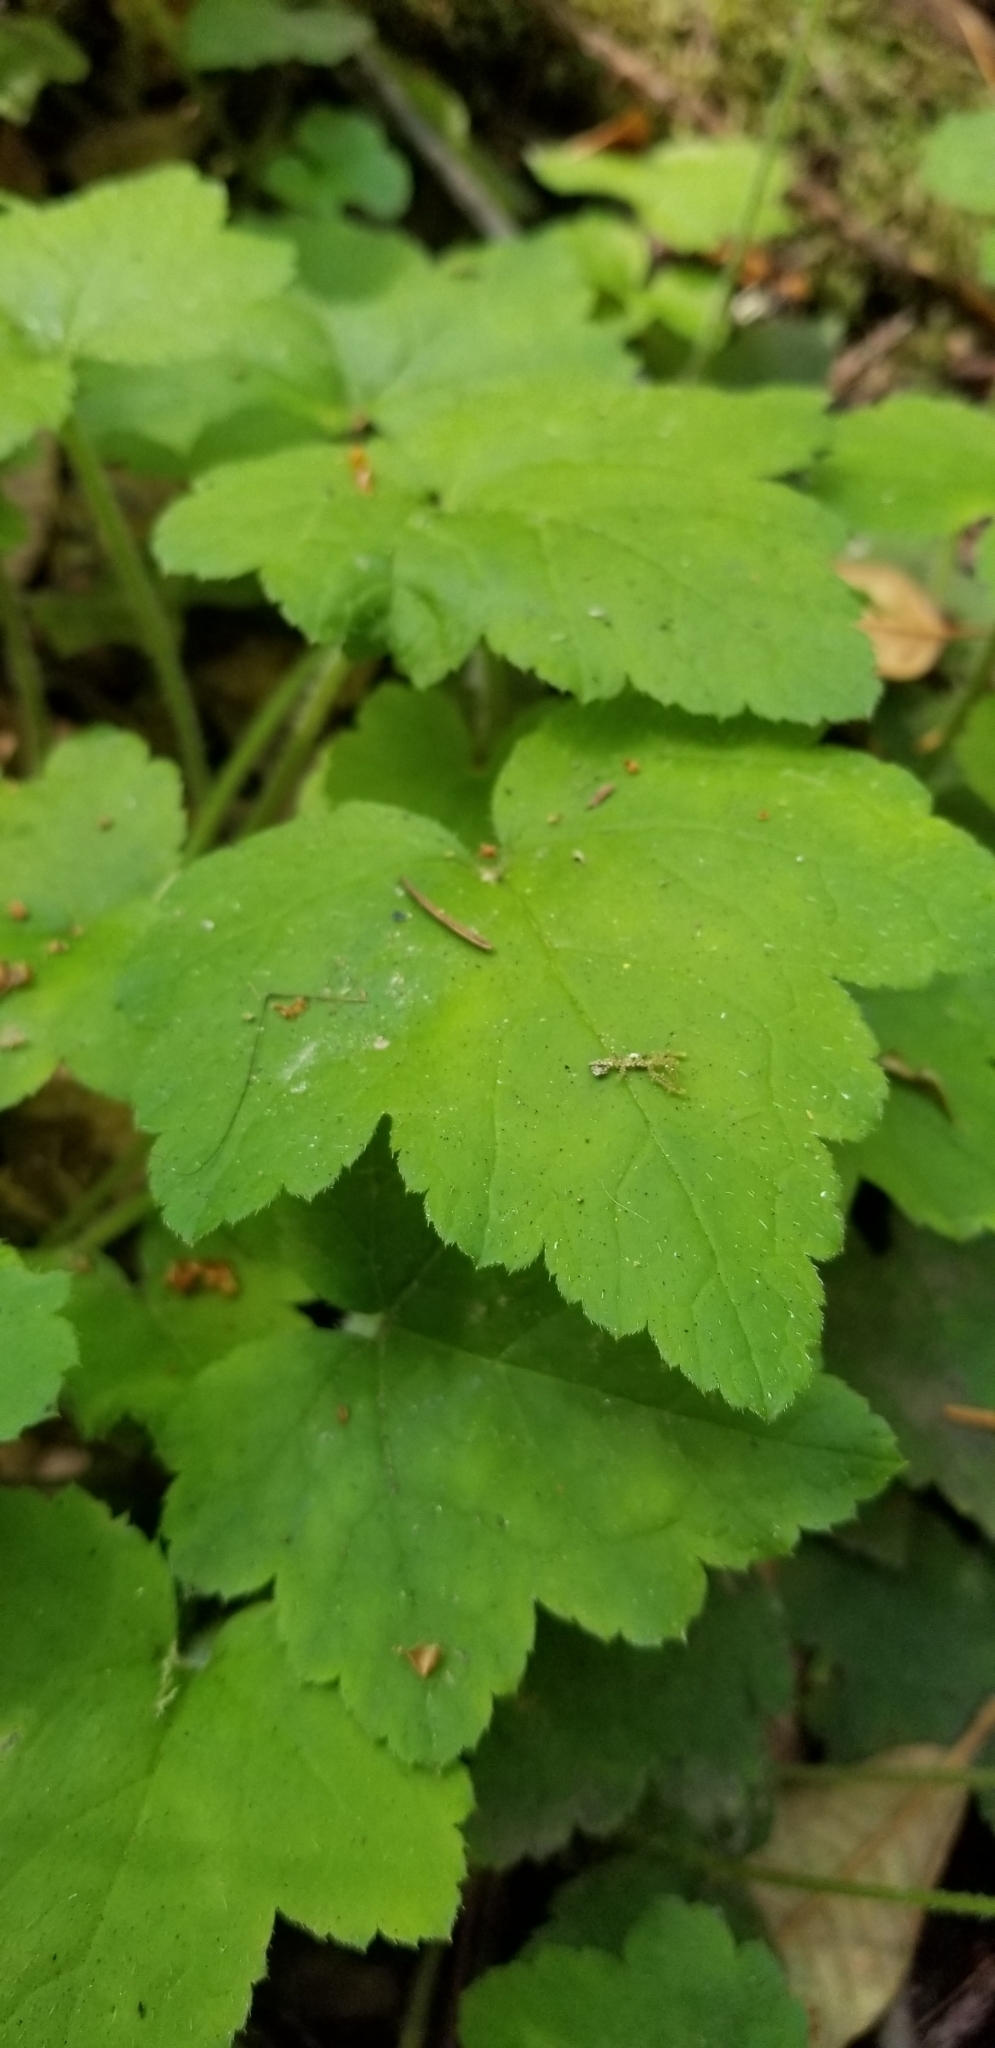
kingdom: Plantae
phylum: Tracheophyta
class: Magnoliopsida
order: Saxifragales
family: Saxifragaceae
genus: Tiarella
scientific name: Tiarella trifoliata
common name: Sugar-scoop
